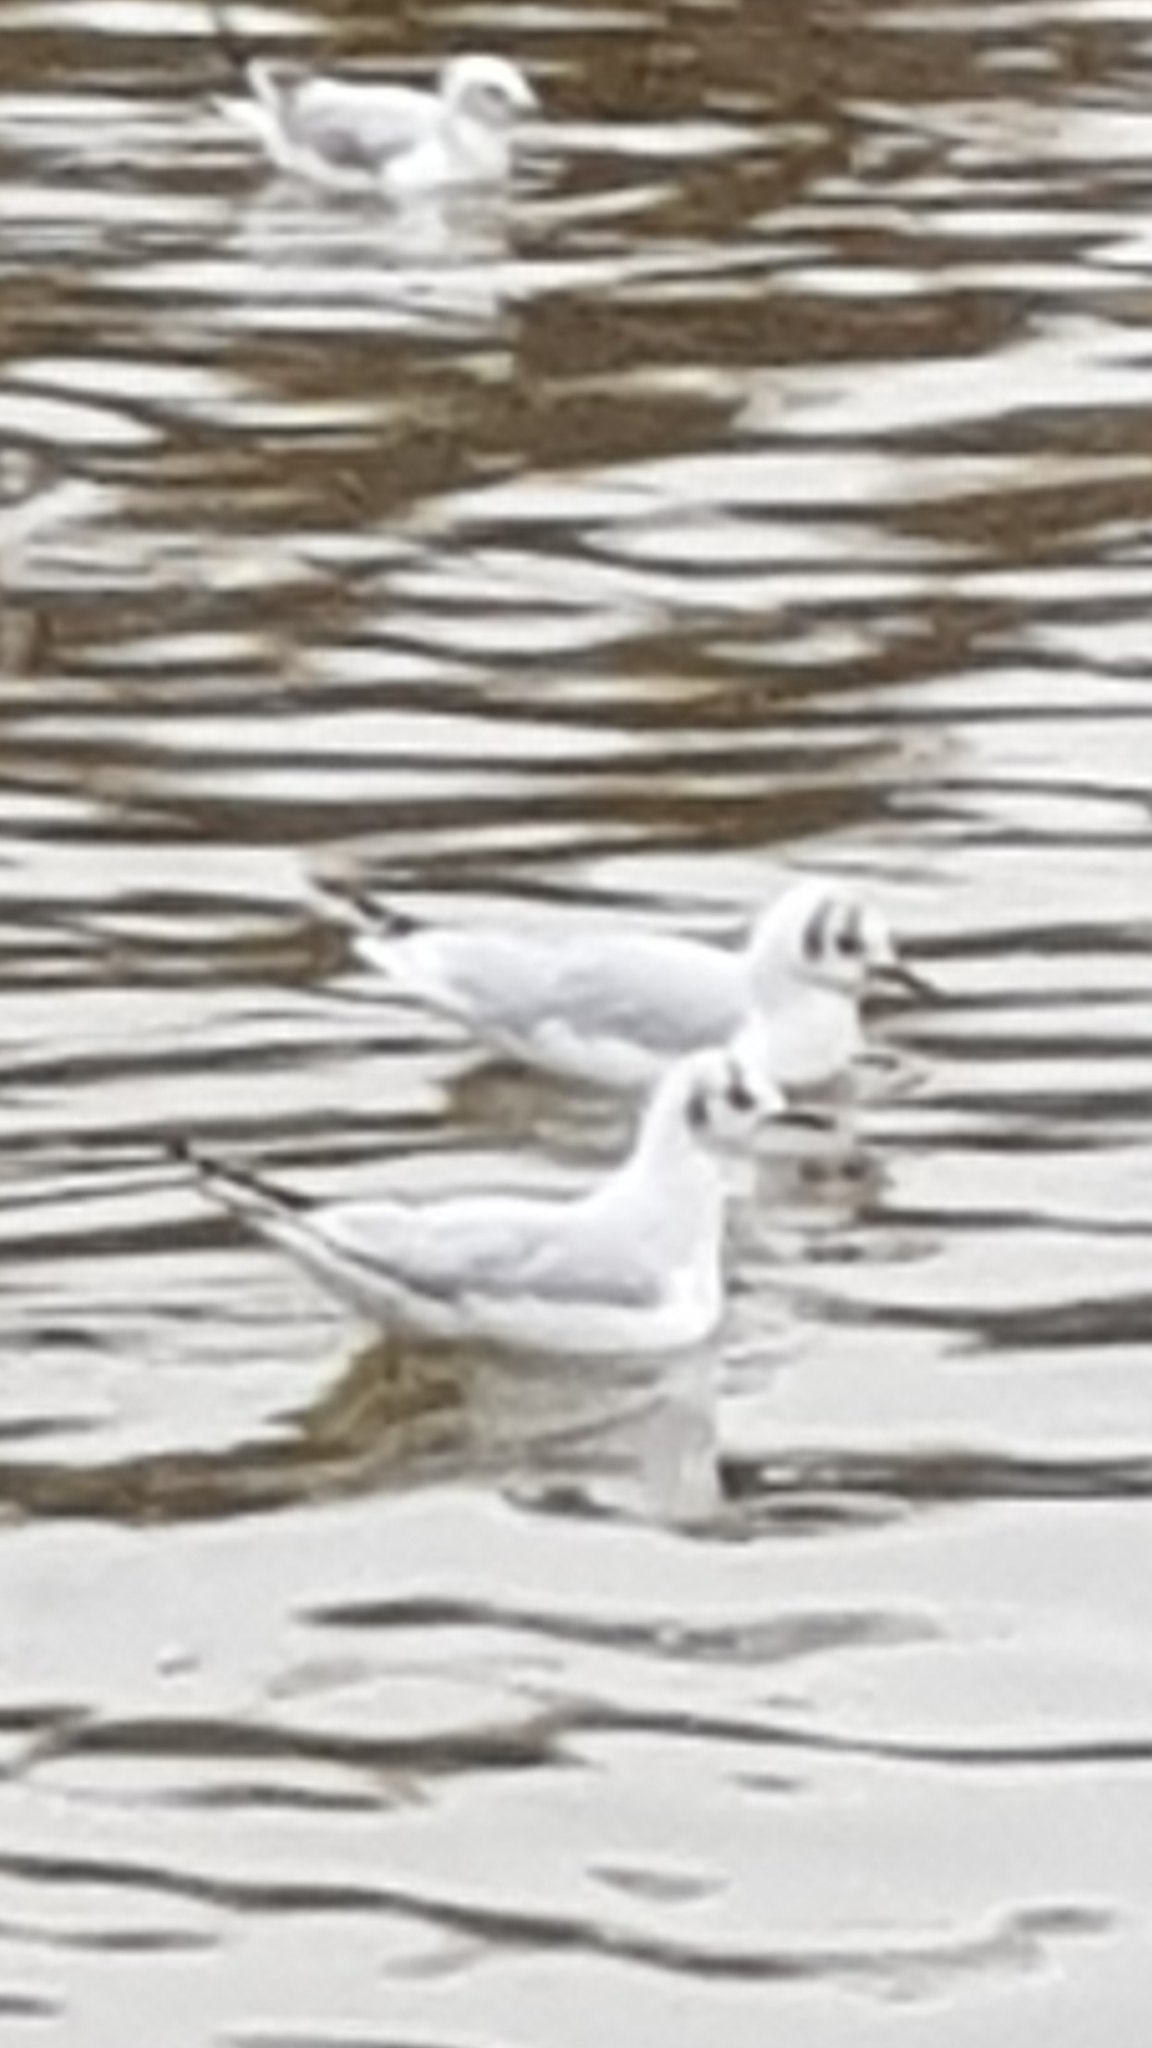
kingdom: Animalia
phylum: Chordata
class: Aves
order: Charadriiformes
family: Laridae
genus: Chroicocephalus
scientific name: Chroicocephalus ridibundus
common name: Black-headed gull
